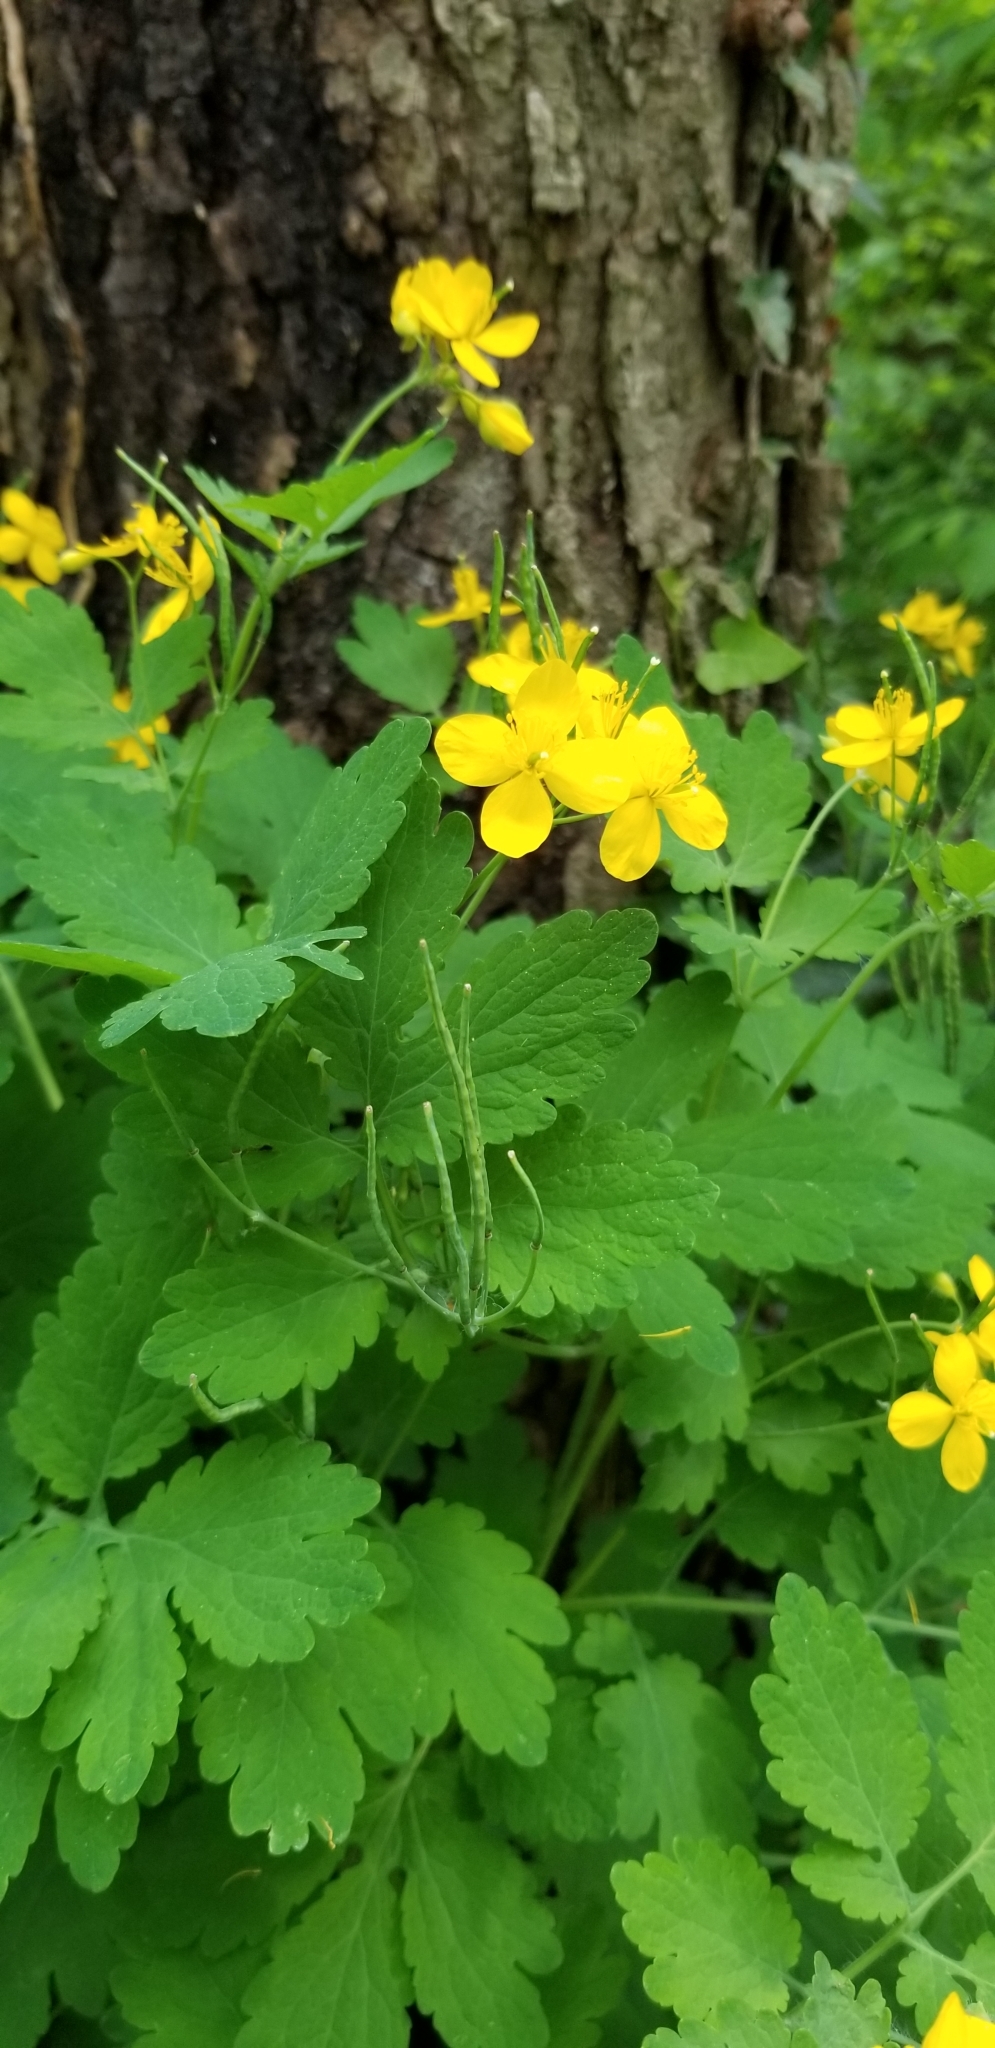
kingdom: Plantae
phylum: Tracheophyta
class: Magnoliopsida
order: Ranunculales
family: Papaveraceae
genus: Chelidonium
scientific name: Chelidonium majus
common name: Greater celandine
